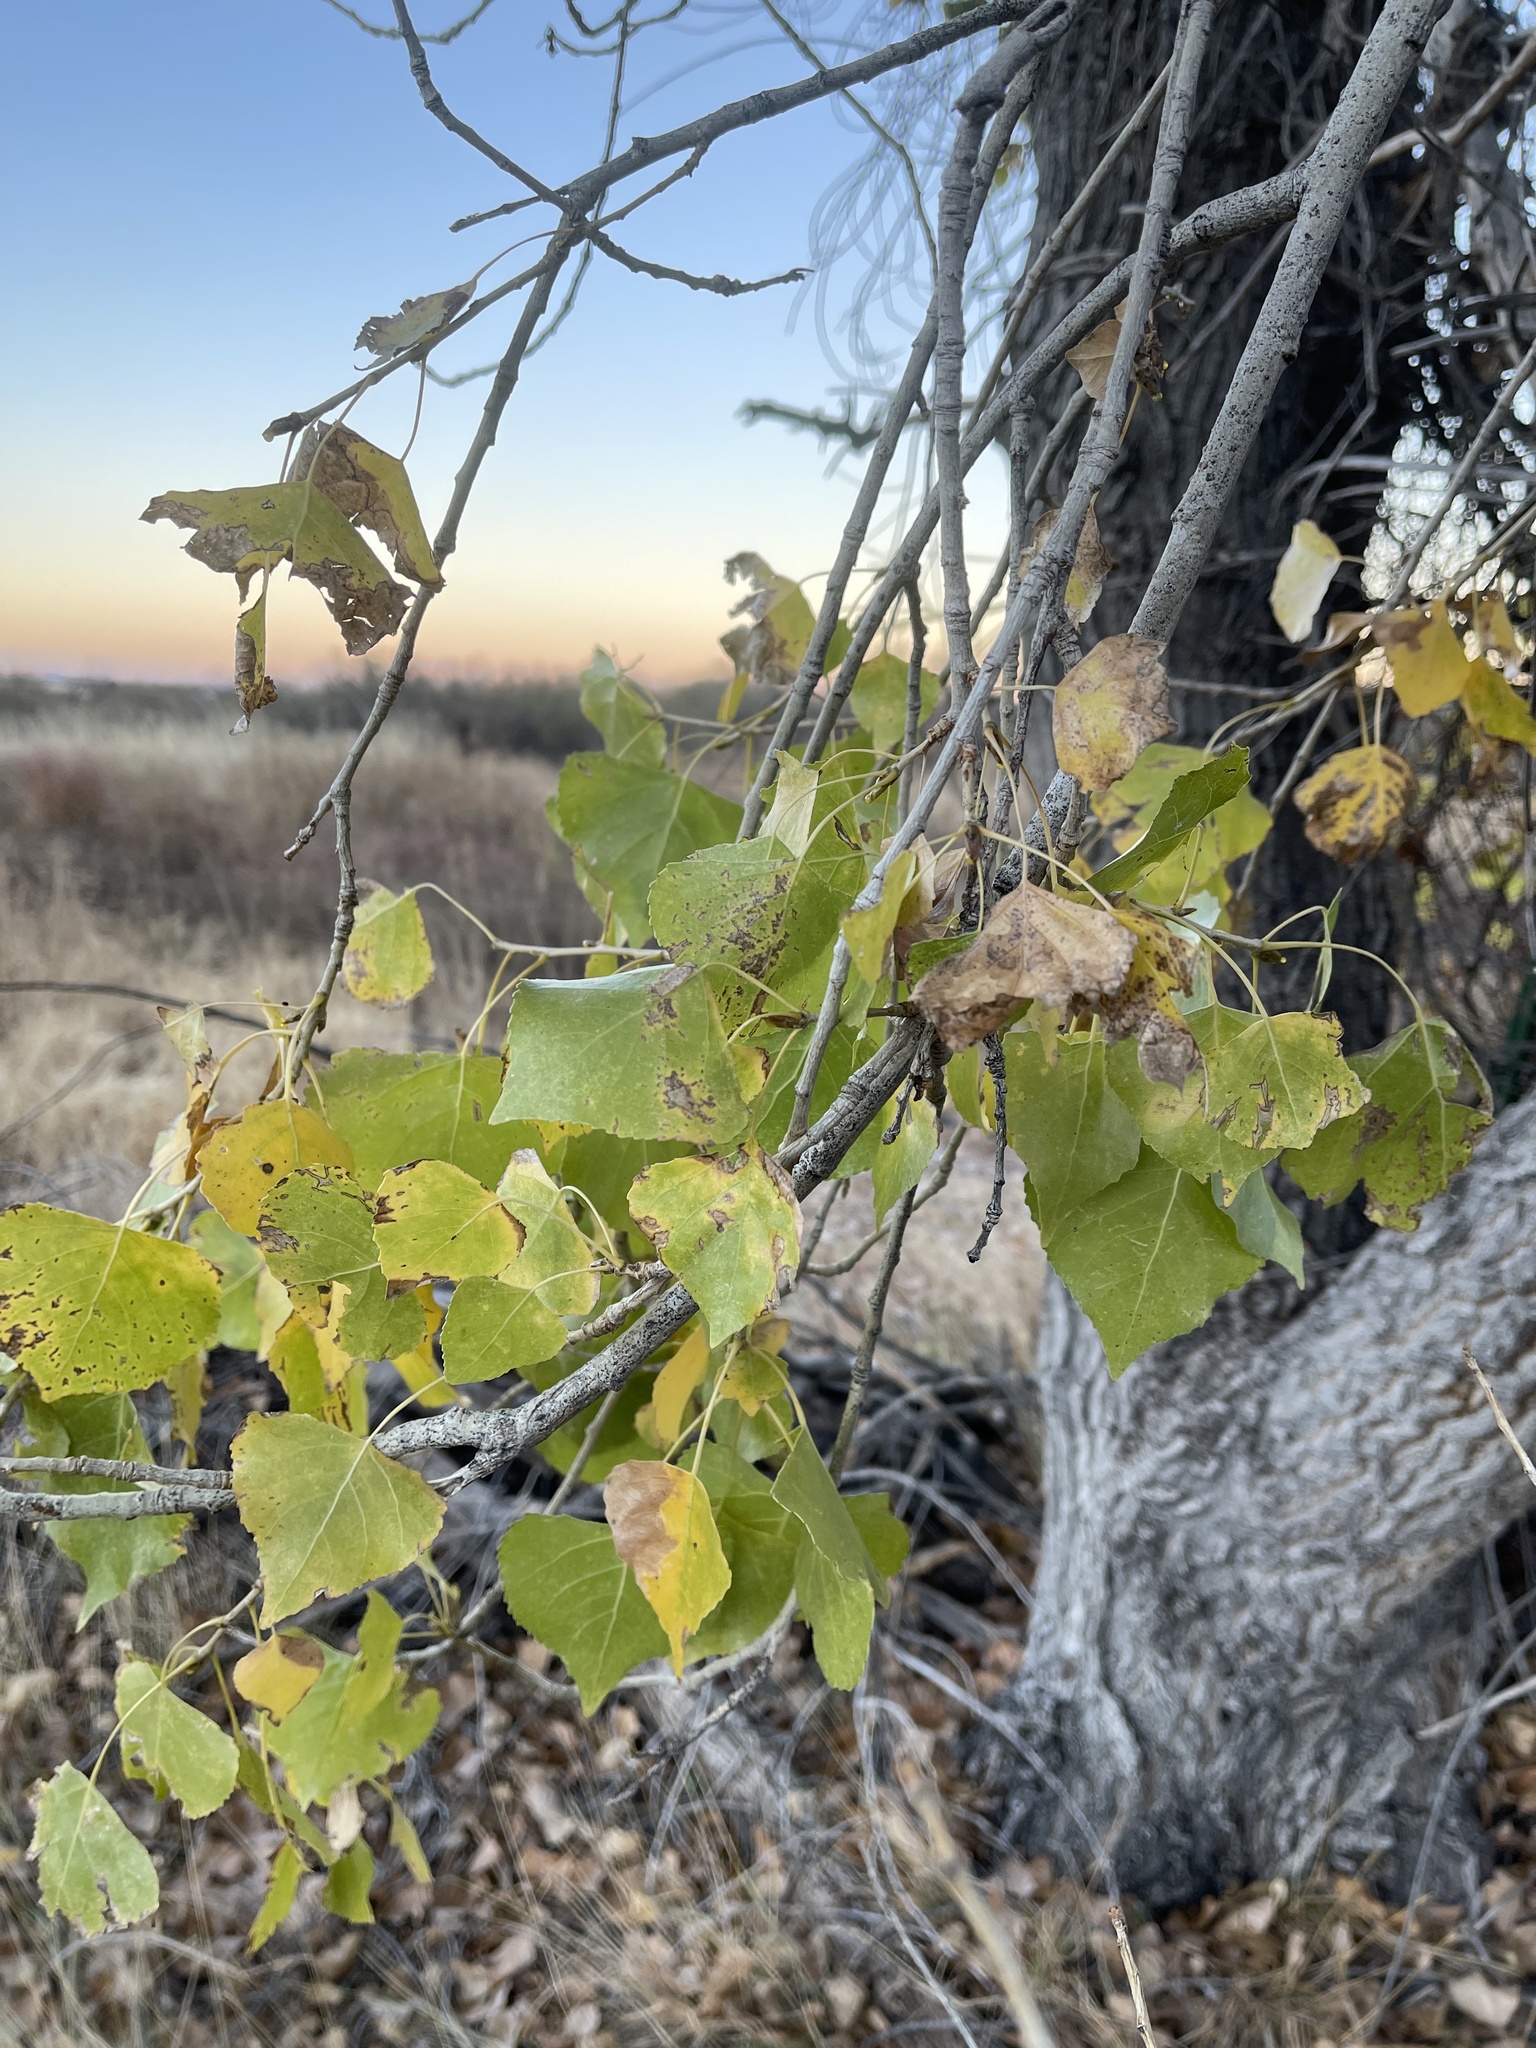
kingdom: Plantae
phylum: Tracheophyta
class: Magnoliopsida
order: Malpighiales
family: Salicaceae
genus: Populus
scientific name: Populus fremontii
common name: Fremont's cottonwood
